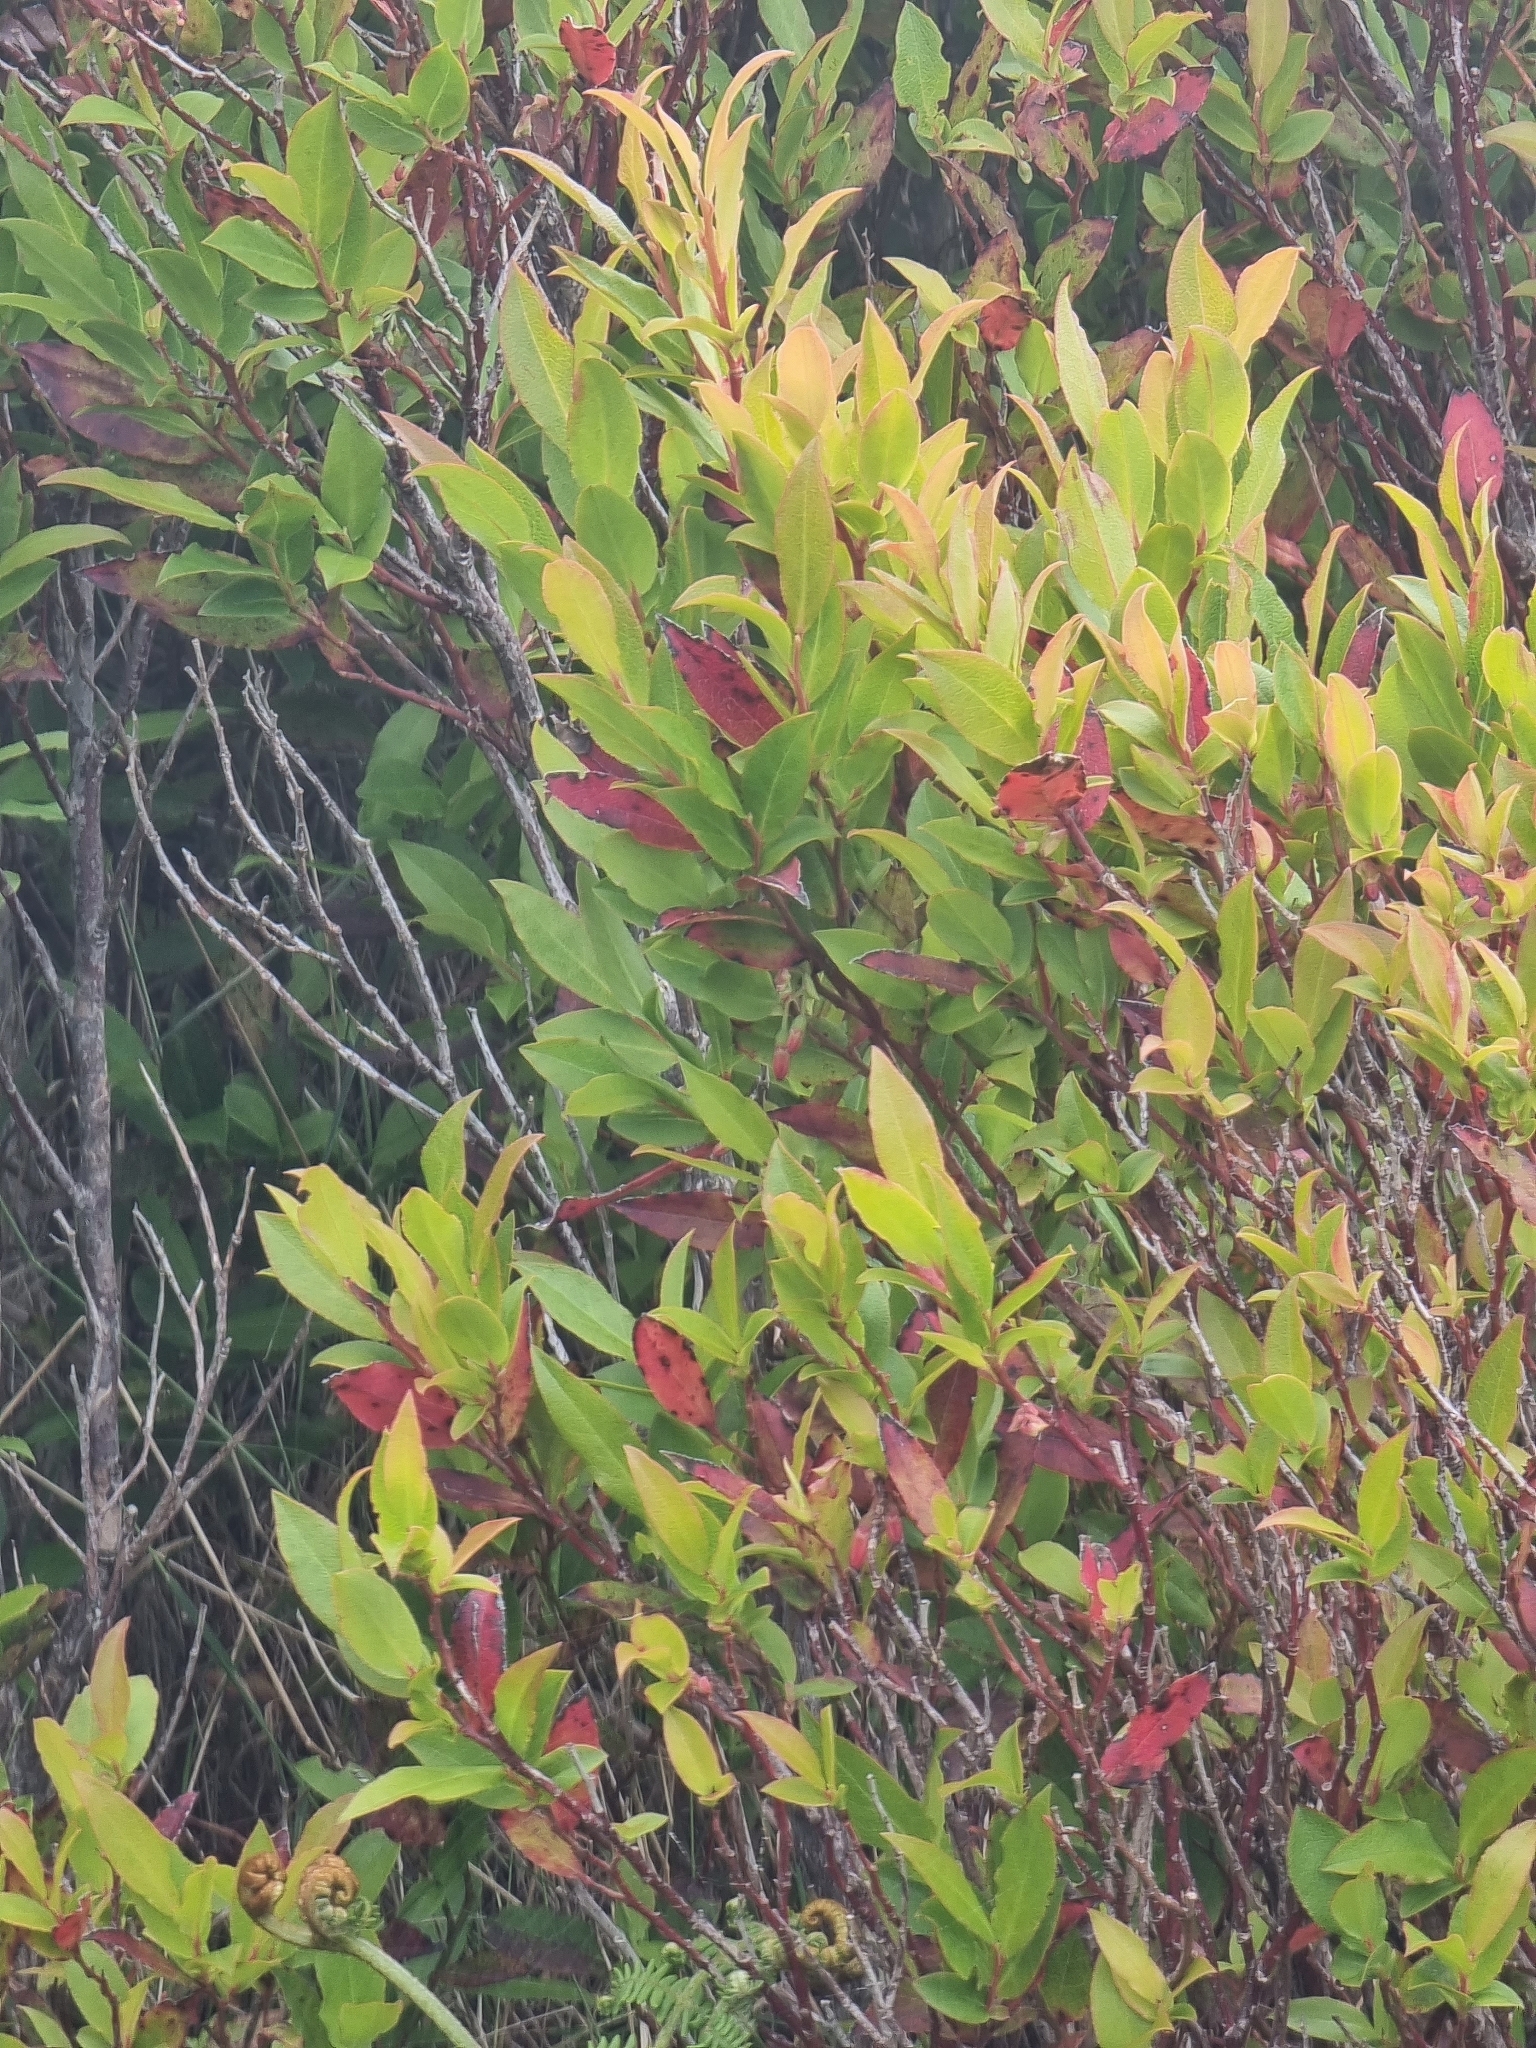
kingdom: Plantae
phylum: Tracheophyta
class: Magnoliopsida
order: Ericales
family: Ericaceae
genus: Vaccinium
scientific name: Vaccinium padifolium
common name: Madeiran blueberry
